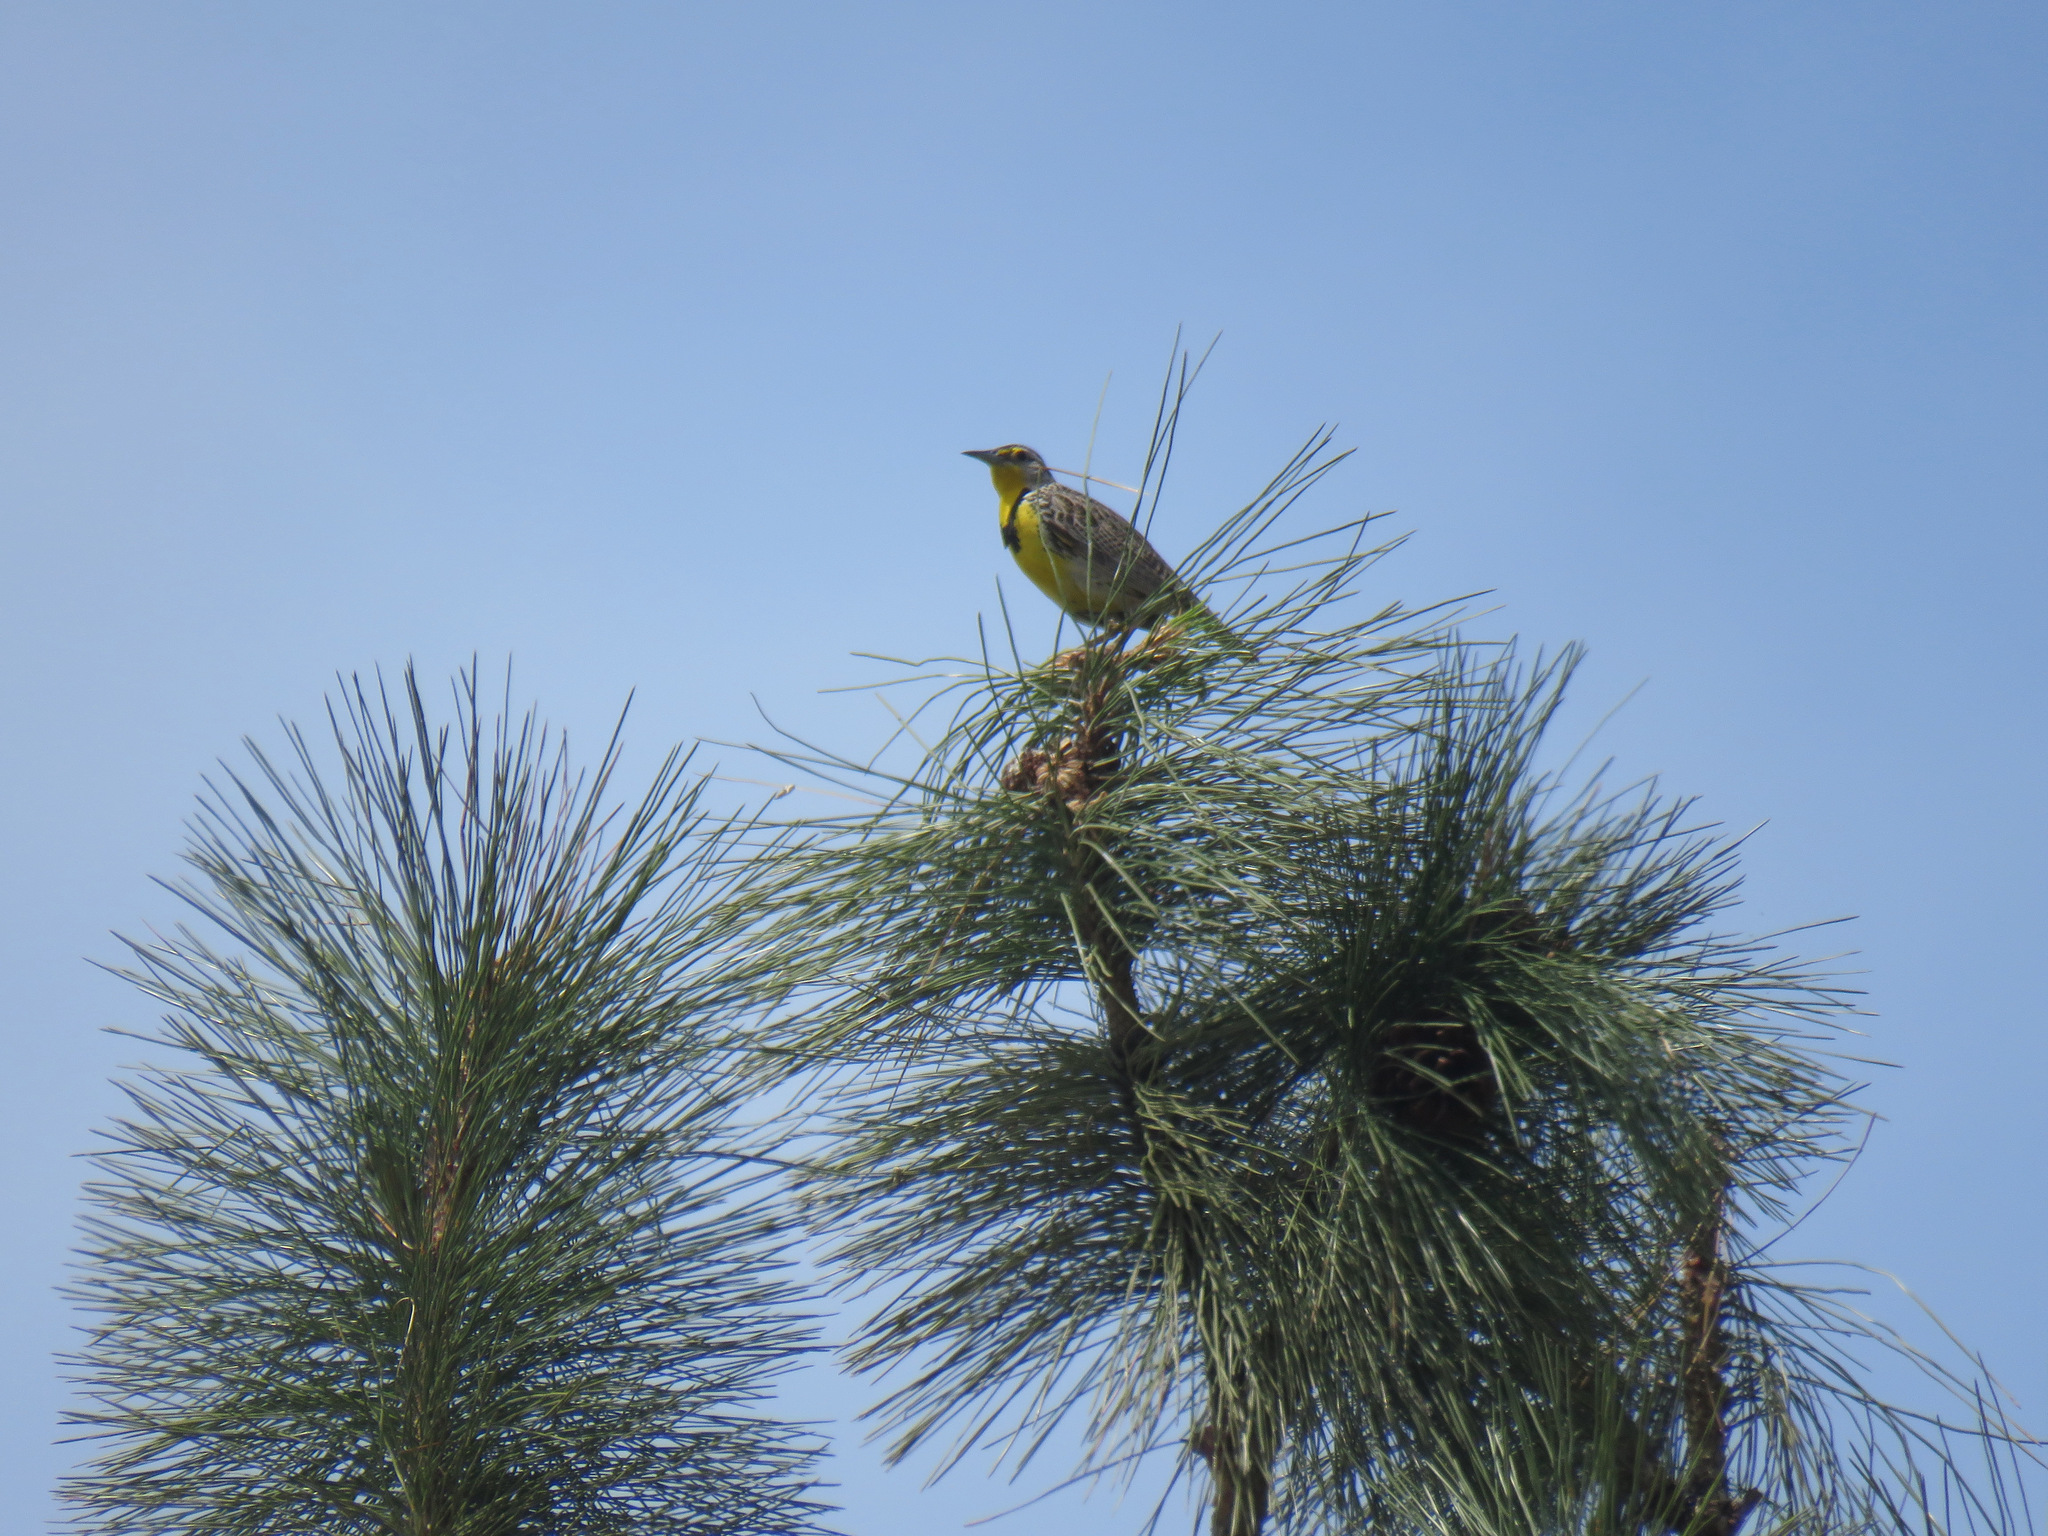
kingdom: Animalia
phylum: Chordata
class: Aves
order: Passeriformes
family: Icteridae
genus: Sturnella
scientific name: Sturnella neglecta
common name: Western meadowlark
